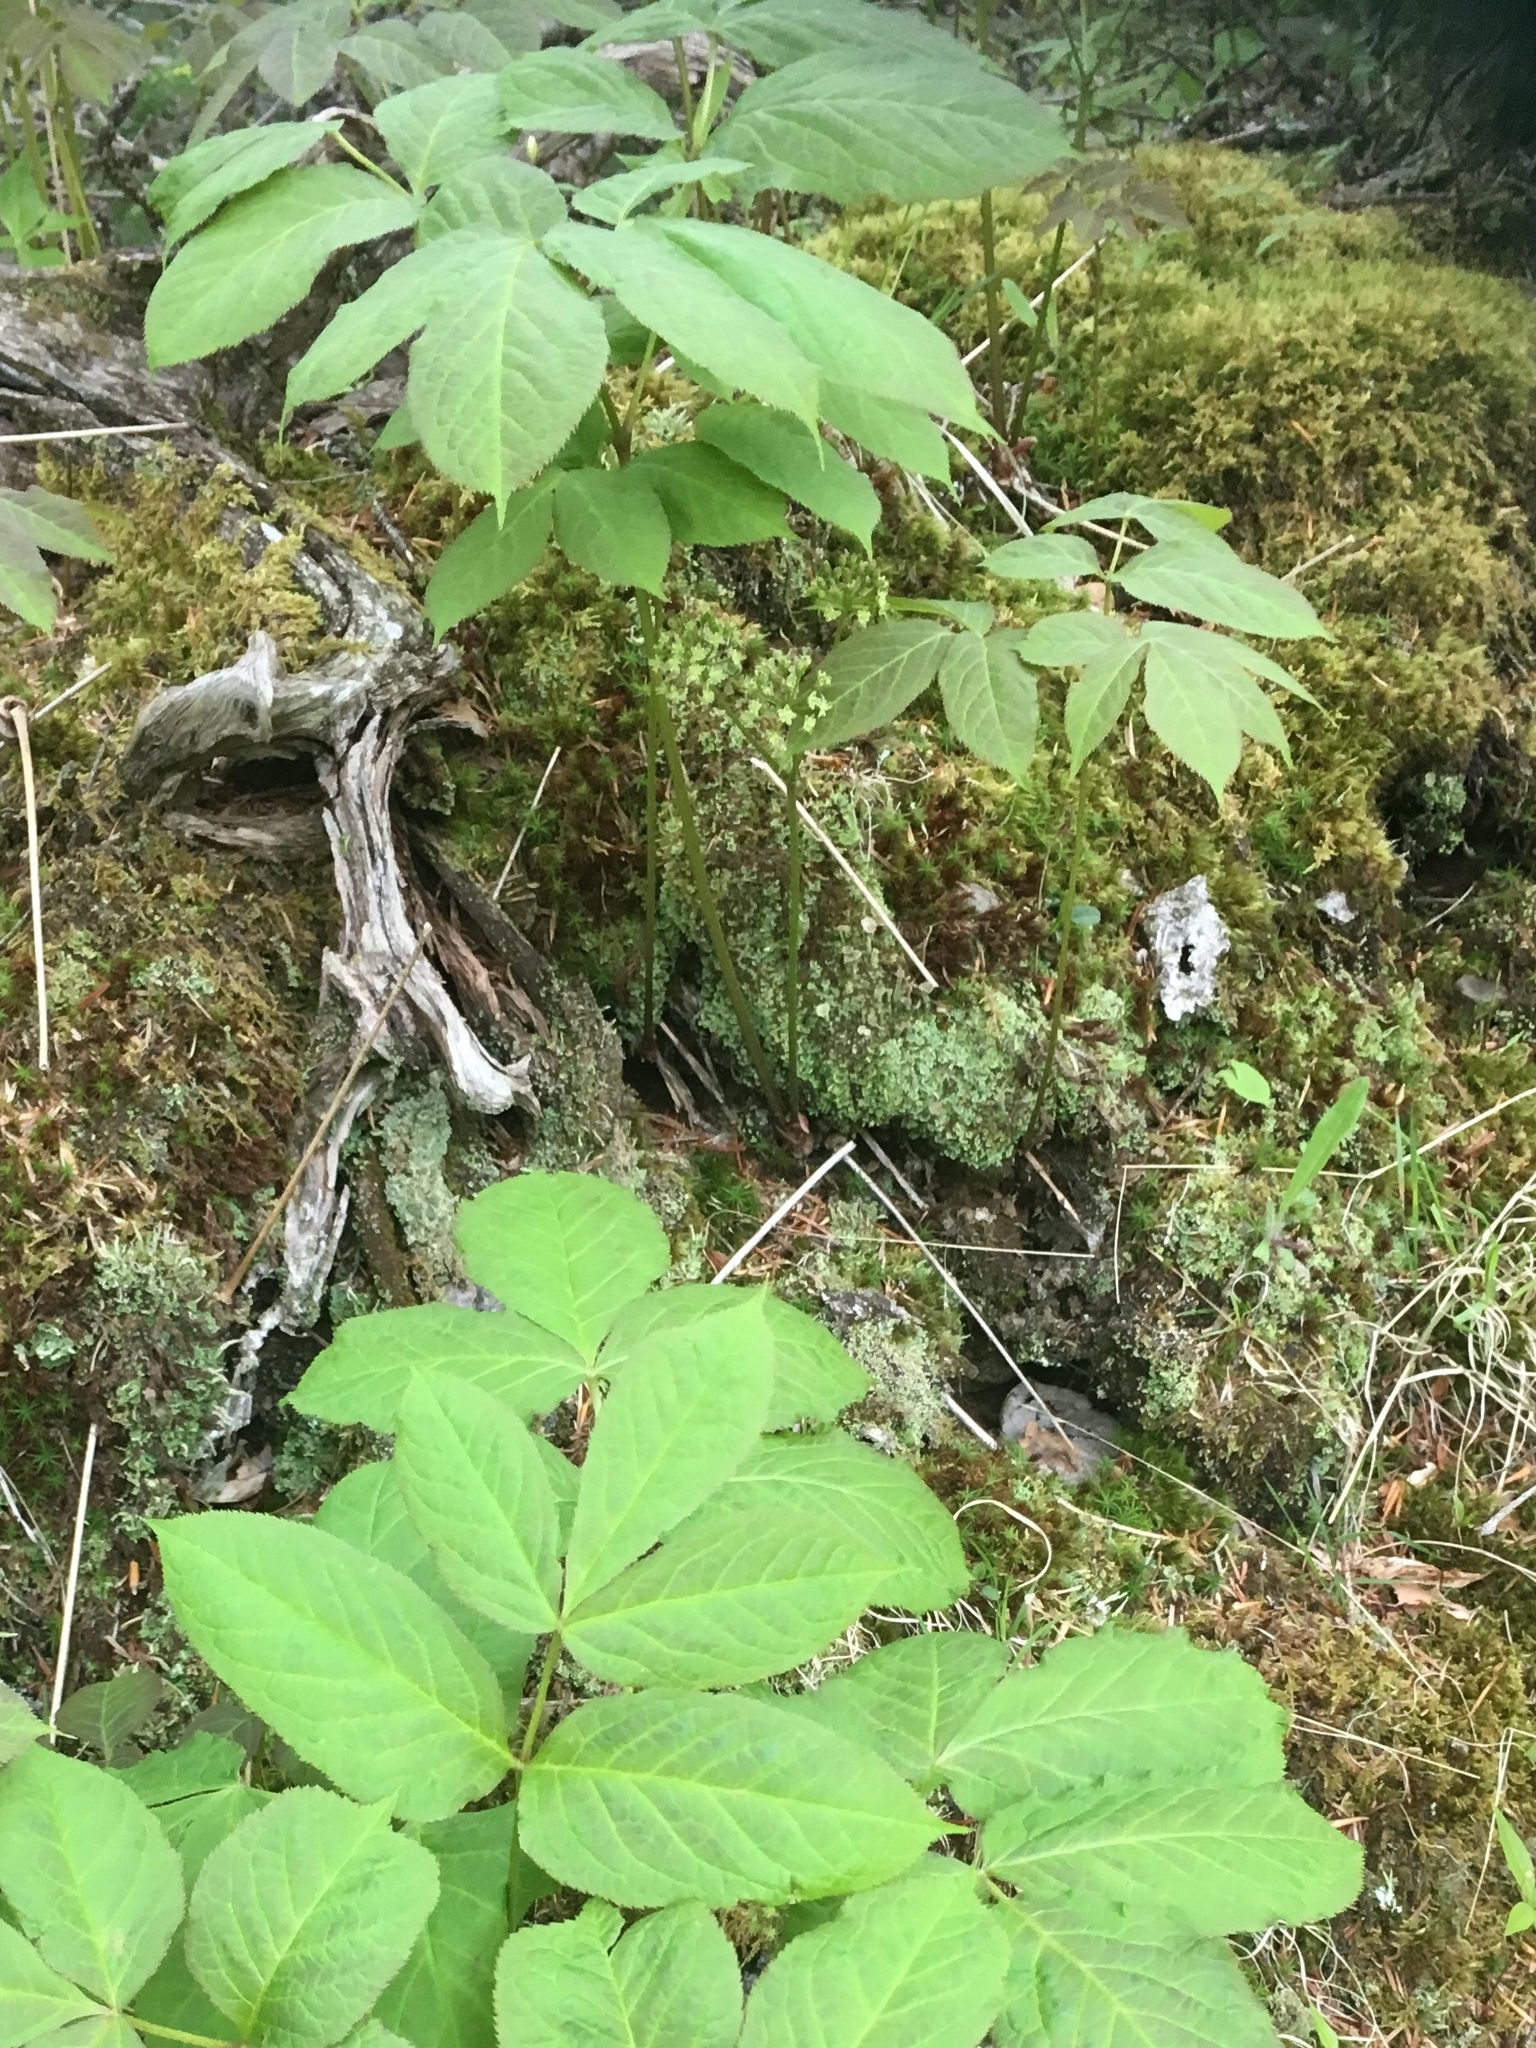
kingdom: Plantae
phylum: Tracheophyta
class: Magnoliopsida
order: Apiales
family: Araliaceae
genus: Aralia
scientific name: Aralia nudicaulis
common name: Wild sarsaparilla
